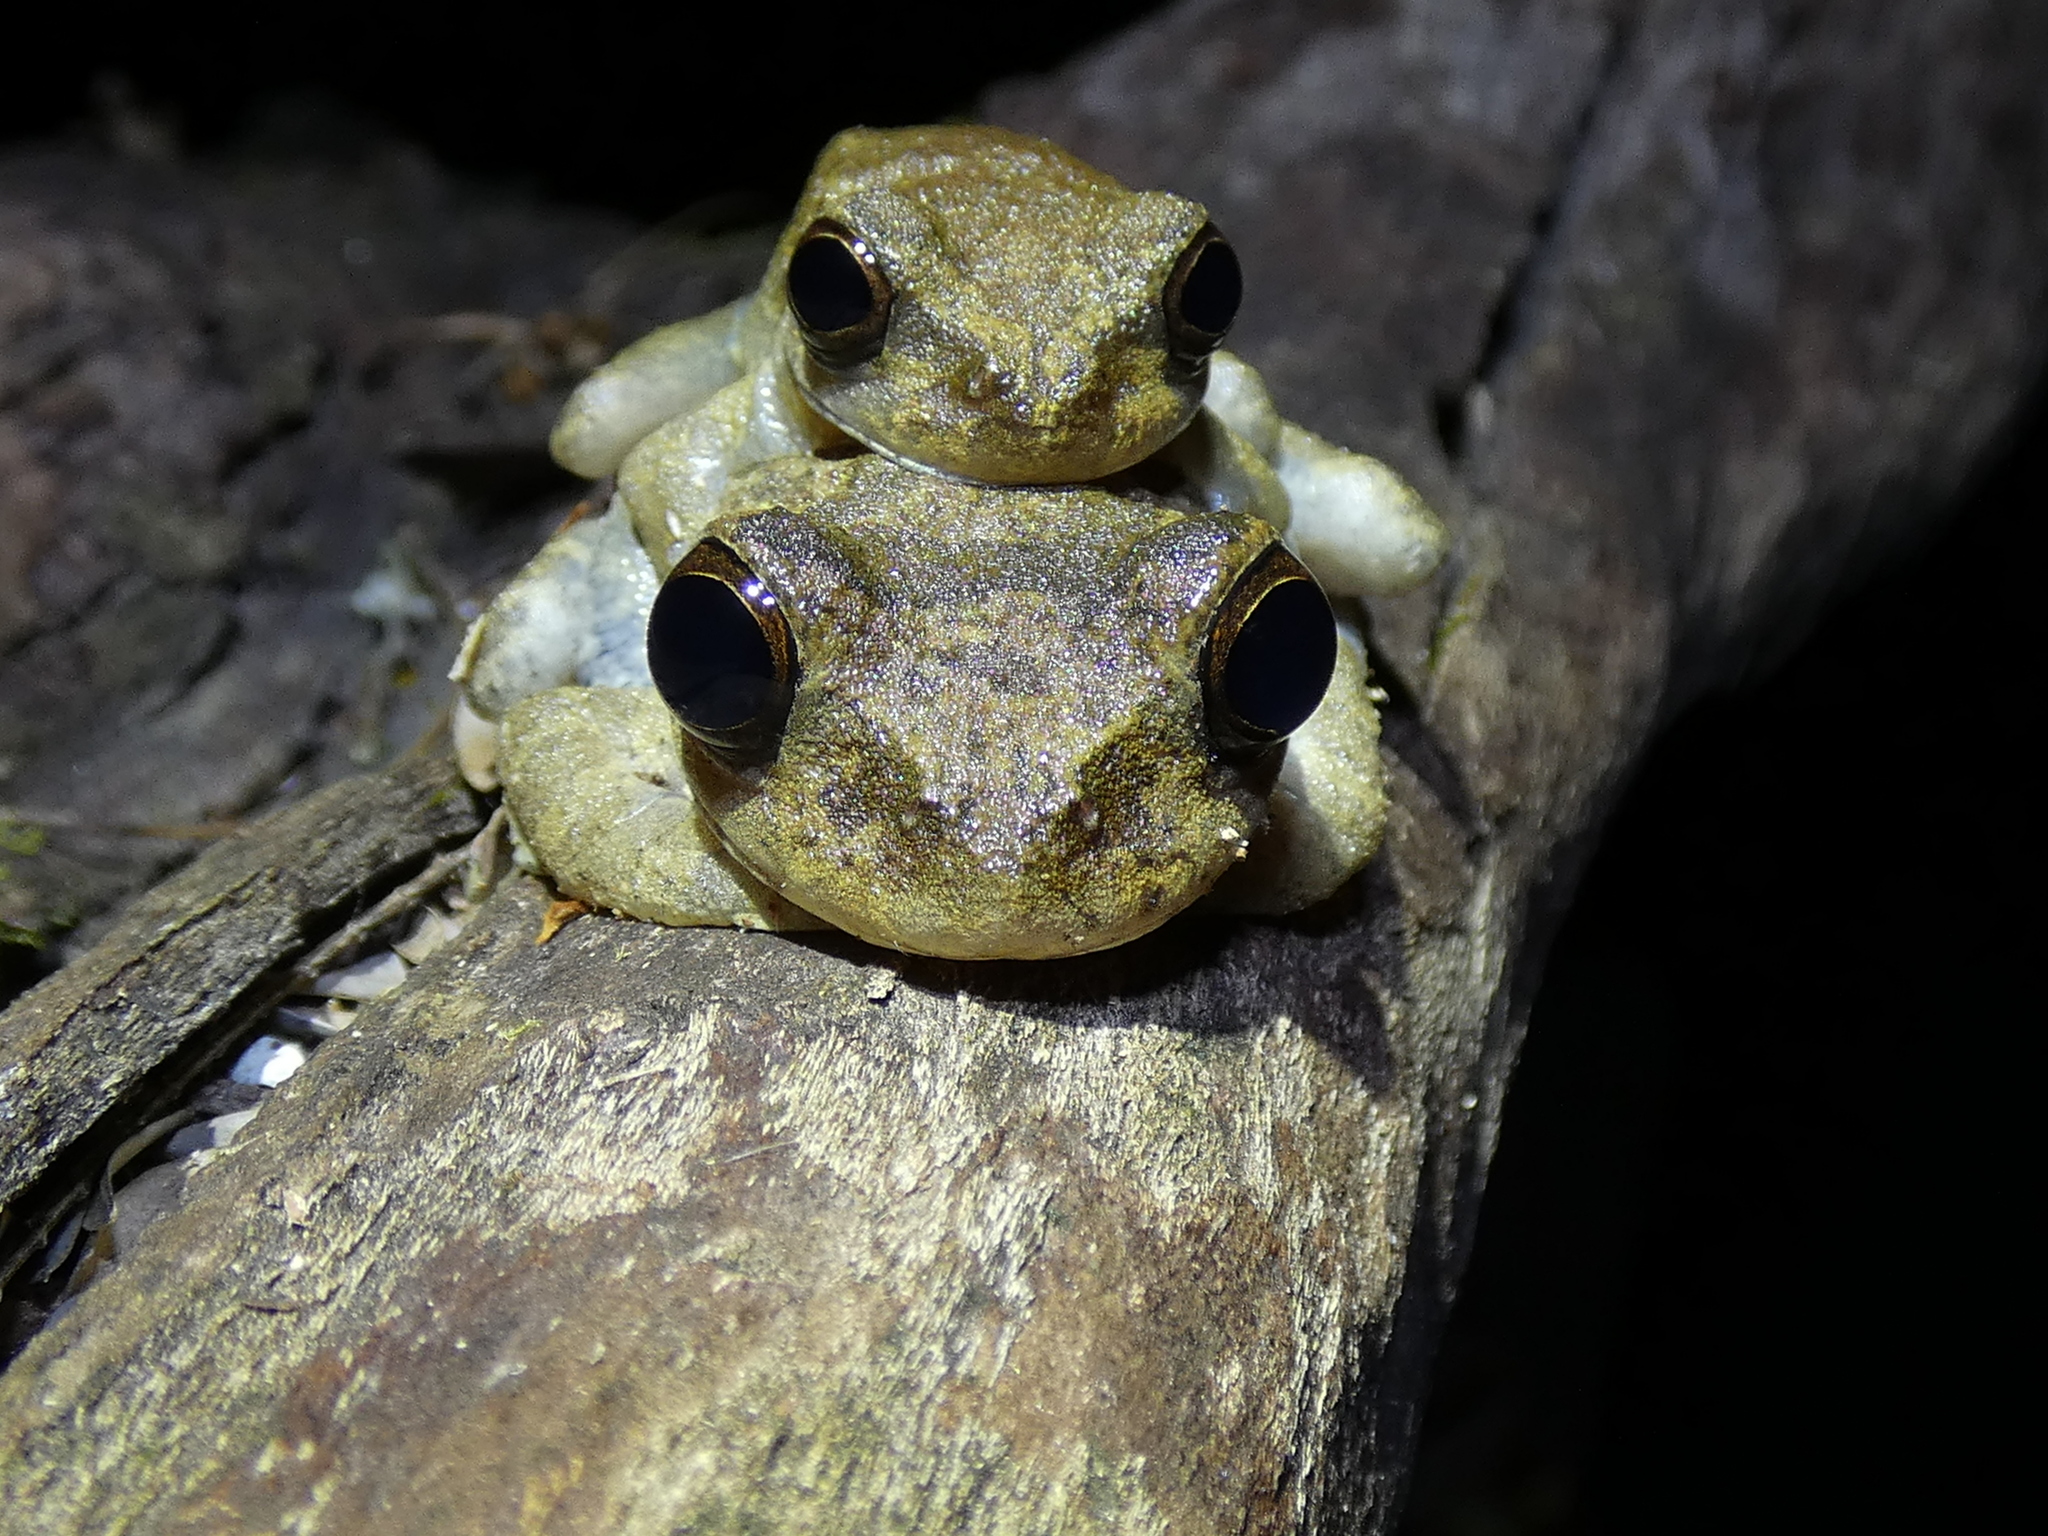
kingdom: Animalia
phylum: Chordata
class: Amphibia
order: Anura
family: Hylidae
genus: Smilisca
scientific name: Smilisca sila
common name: Panama cross-banded treefrog
